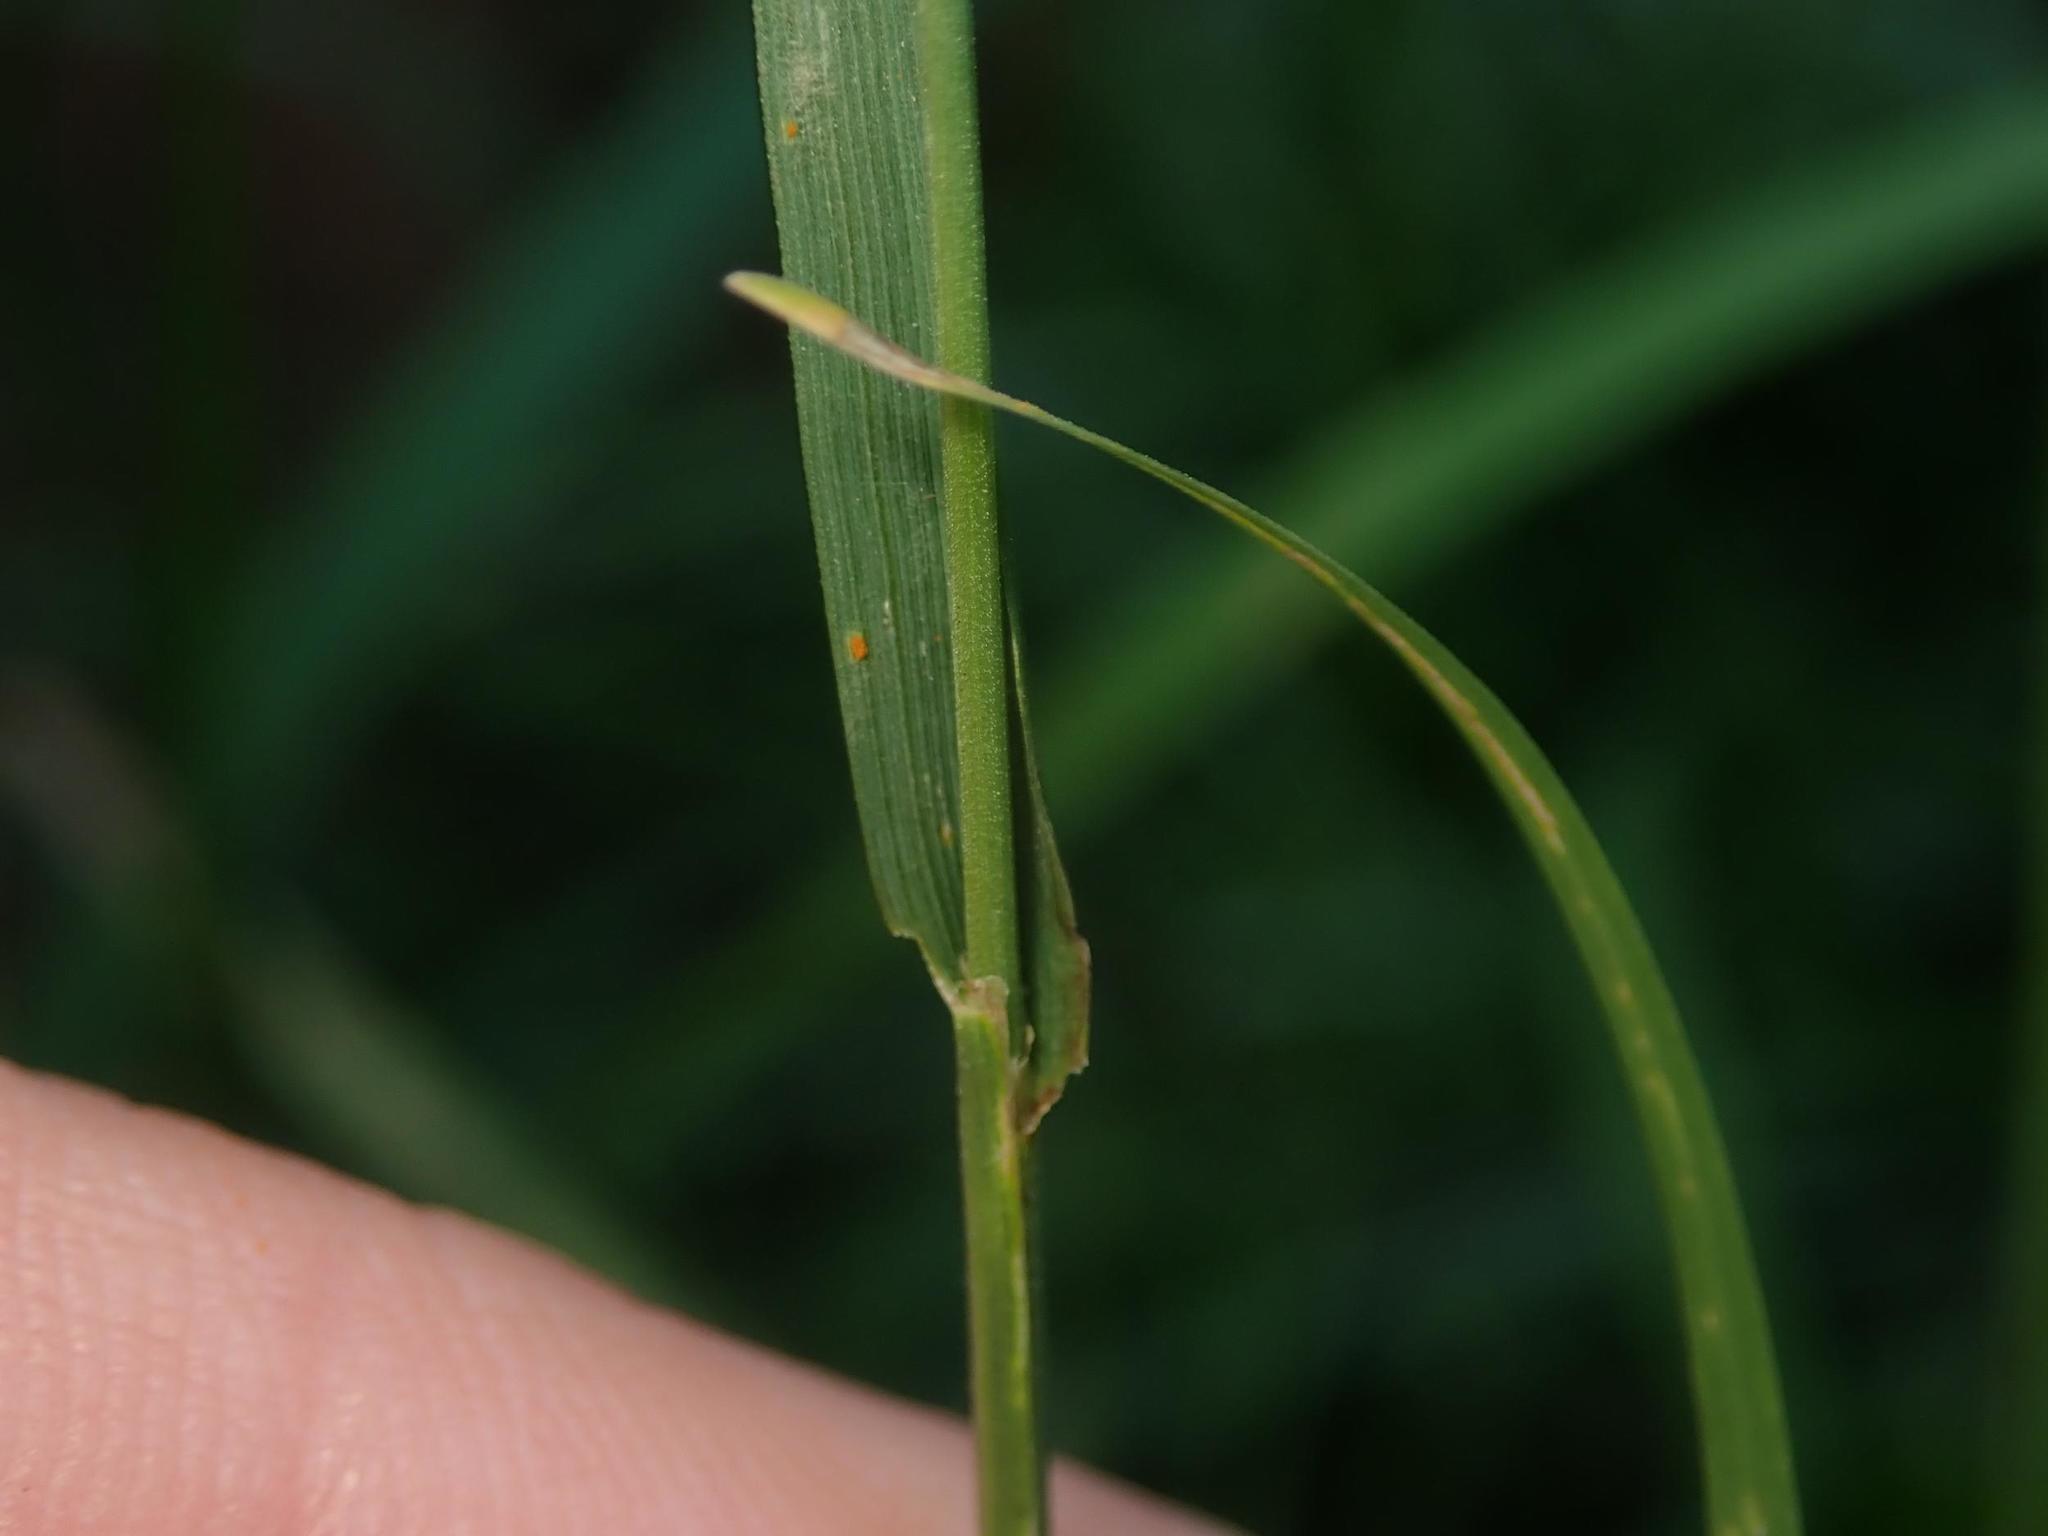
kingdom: Plantae
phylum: Tracheophyta
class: Liliopsida
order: Poales
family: Poaceae
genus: Lolium
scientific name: Lolium perenne
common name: Perennial ryegrass
